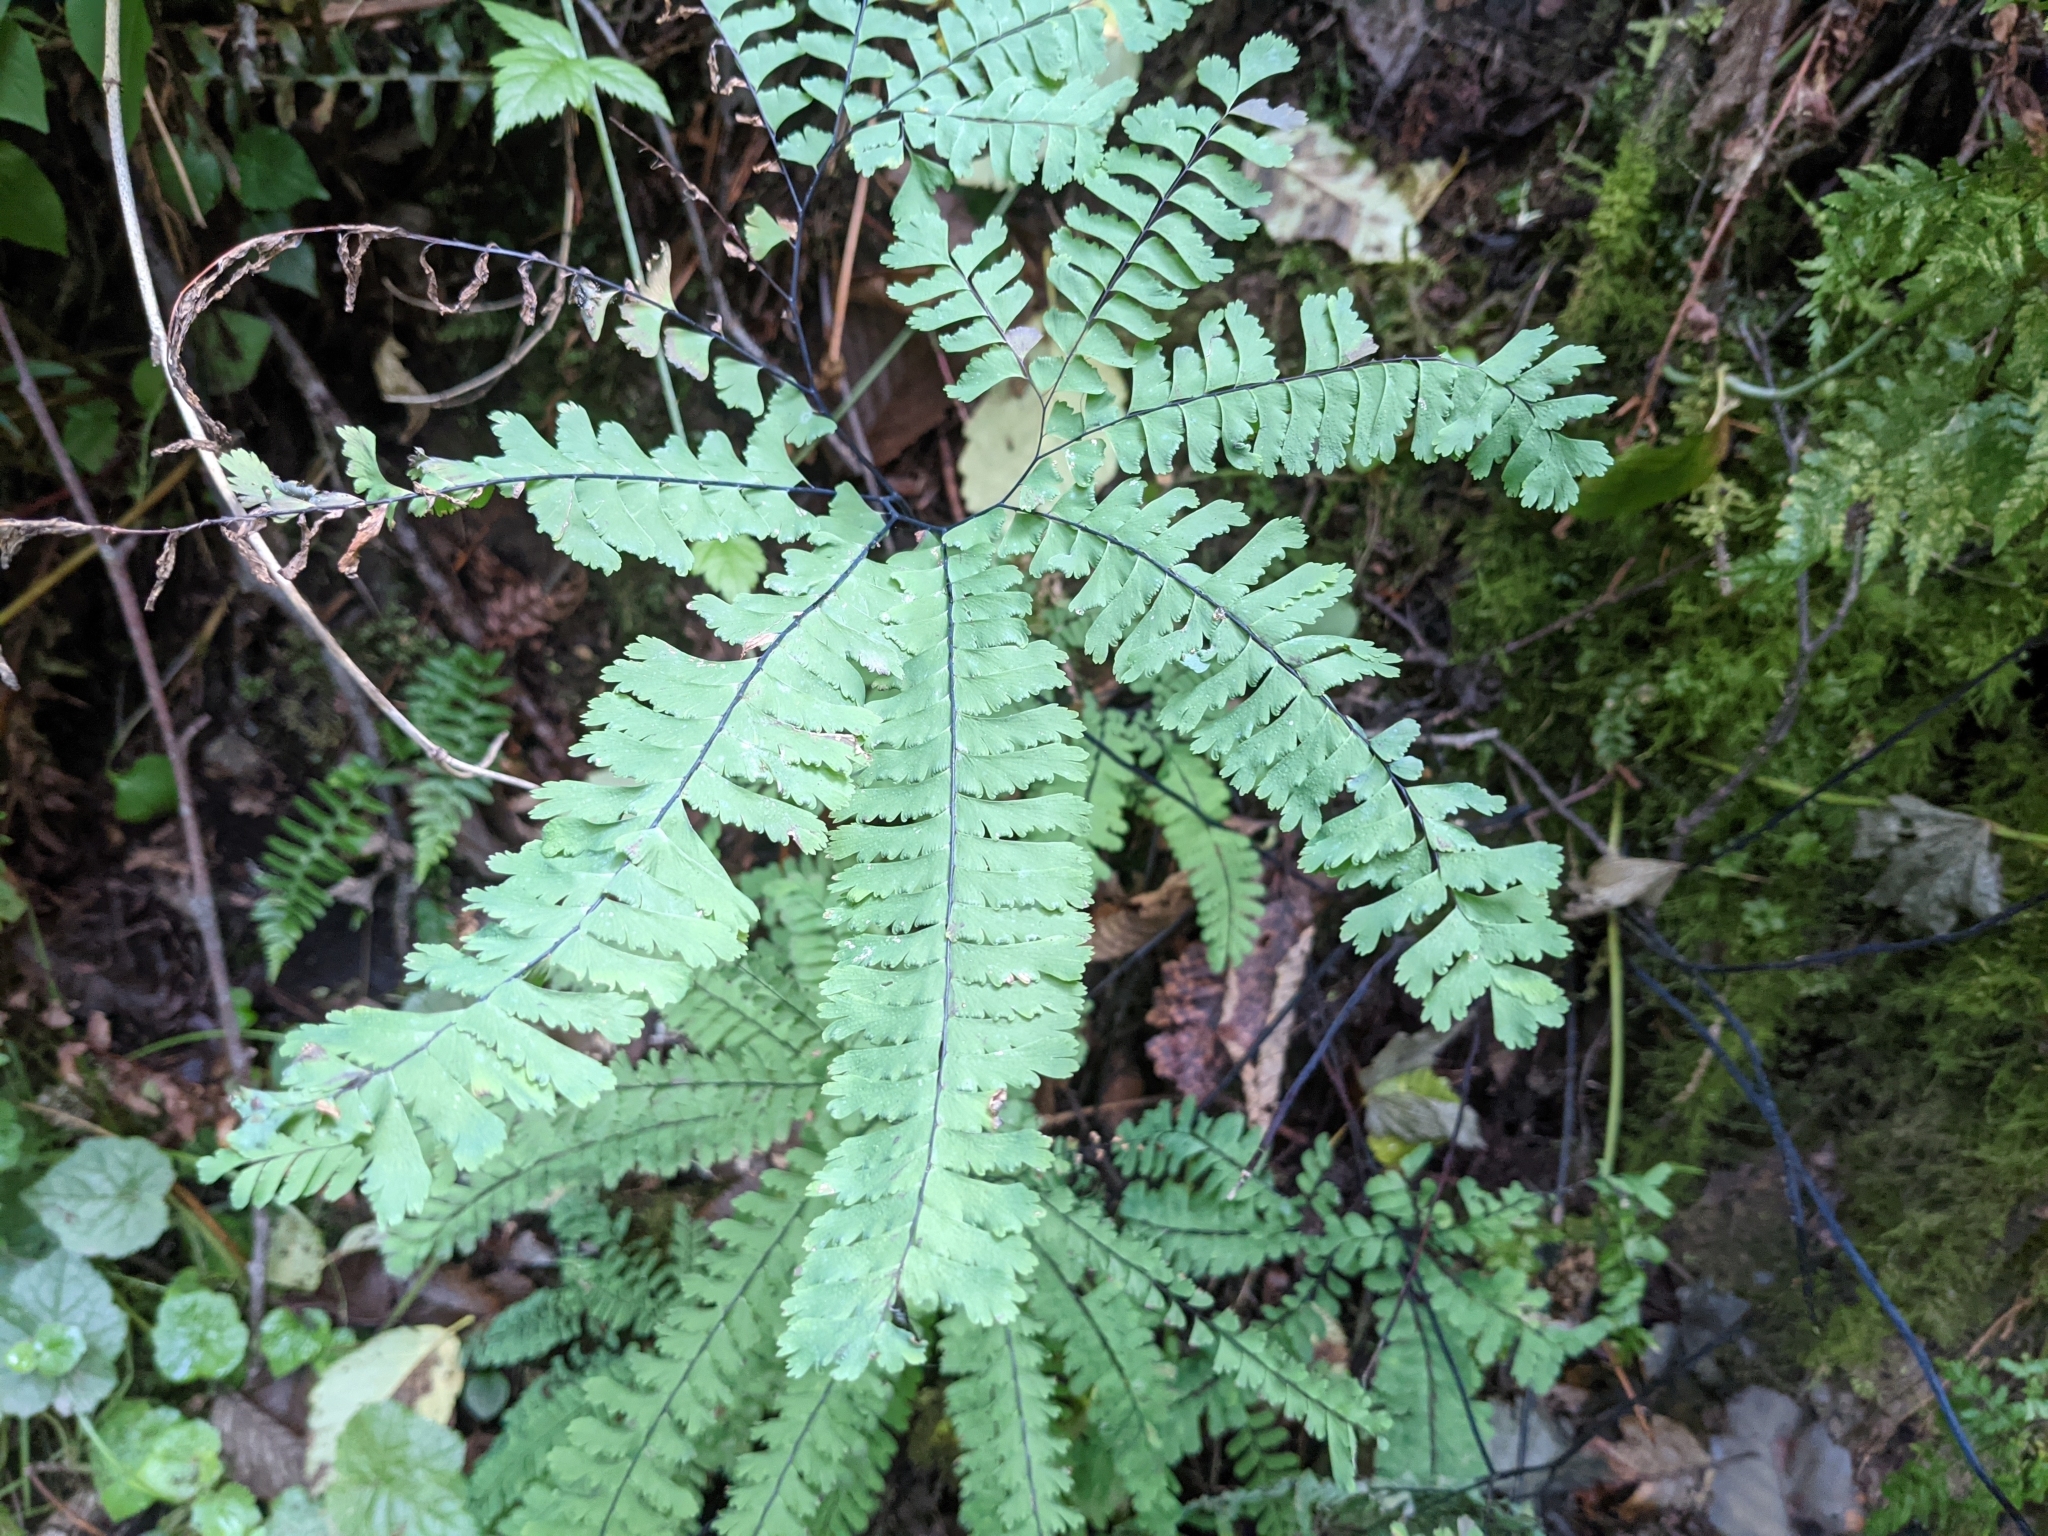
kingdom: Plantae
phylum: Tracheophyta
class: Polypodiopsida
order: Polypodiales
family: Pteridaceae
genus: Adiantum
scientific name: Adiantum aleuticum
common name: Aleutian maidenhair fern
